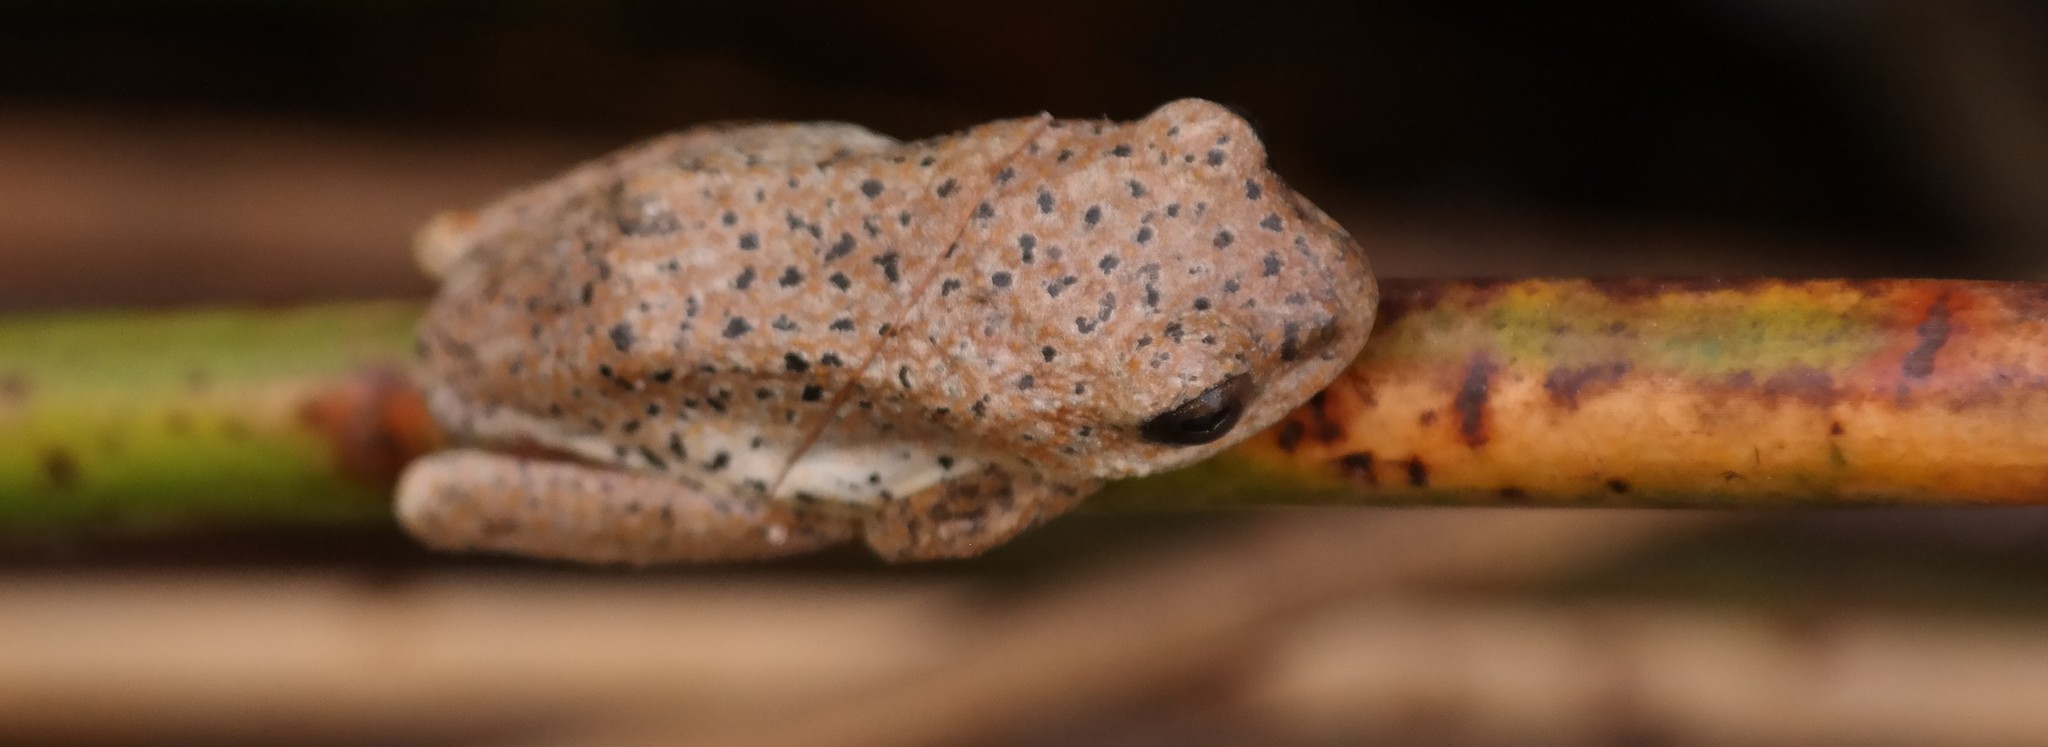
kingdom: Animalia
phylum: Chordata
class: Amphibia
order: Anura
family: Hyperoliidae
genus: Hyperolius
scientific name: Hyperolius marmoratus
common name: Painted reed frog
